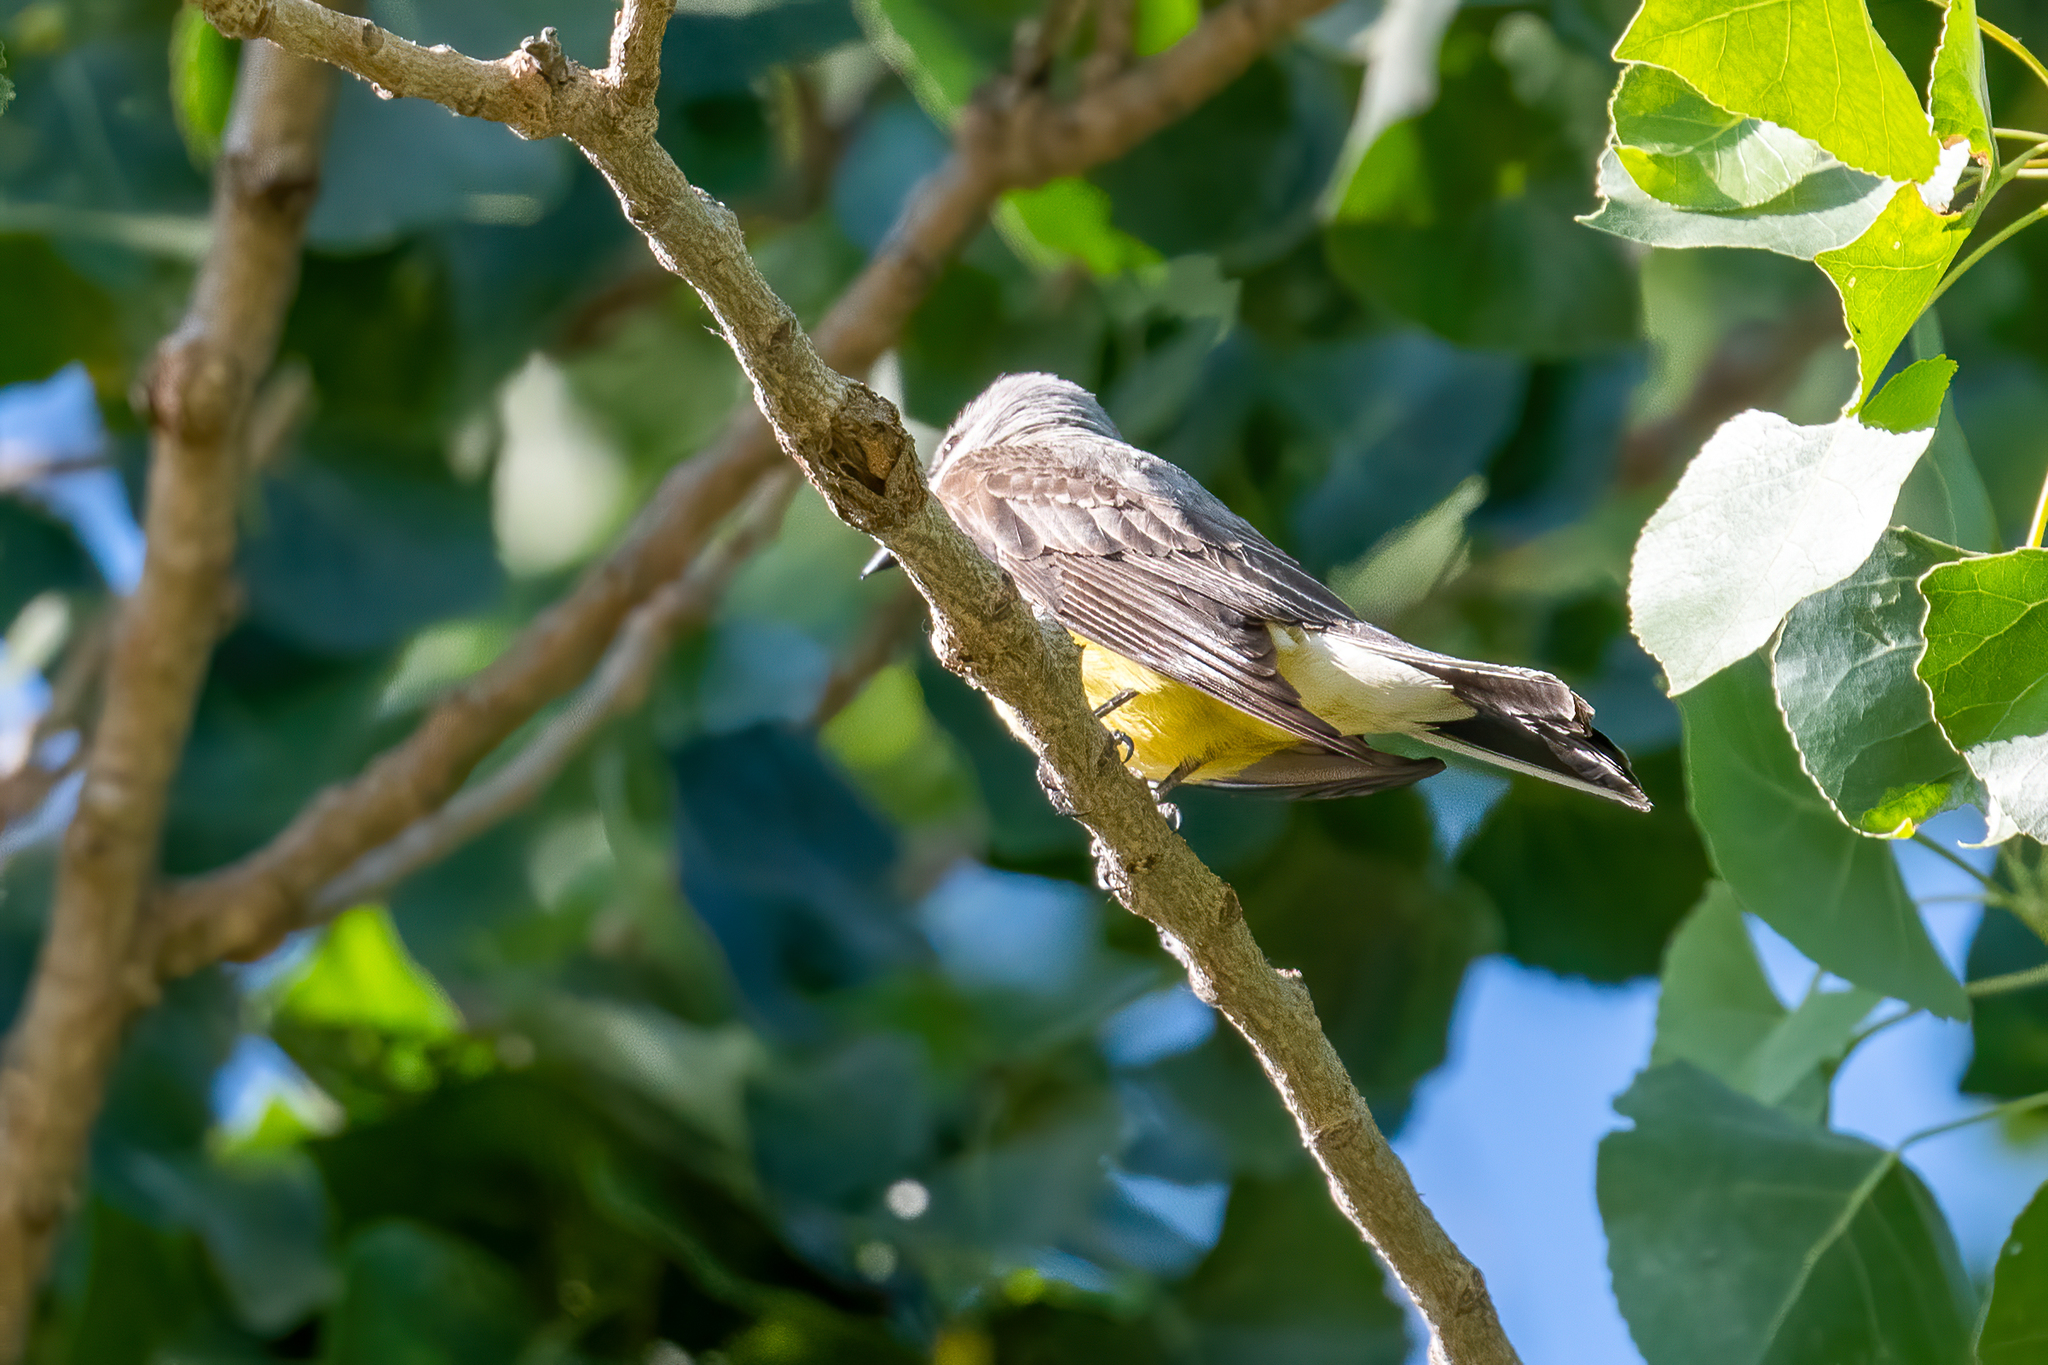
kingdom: Animalia
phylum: Chordata
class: Aves
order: Passeriformes
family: Tyrannidae
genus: Tyrannus
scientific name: Tyrannus verticalis
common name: Western kingbird
